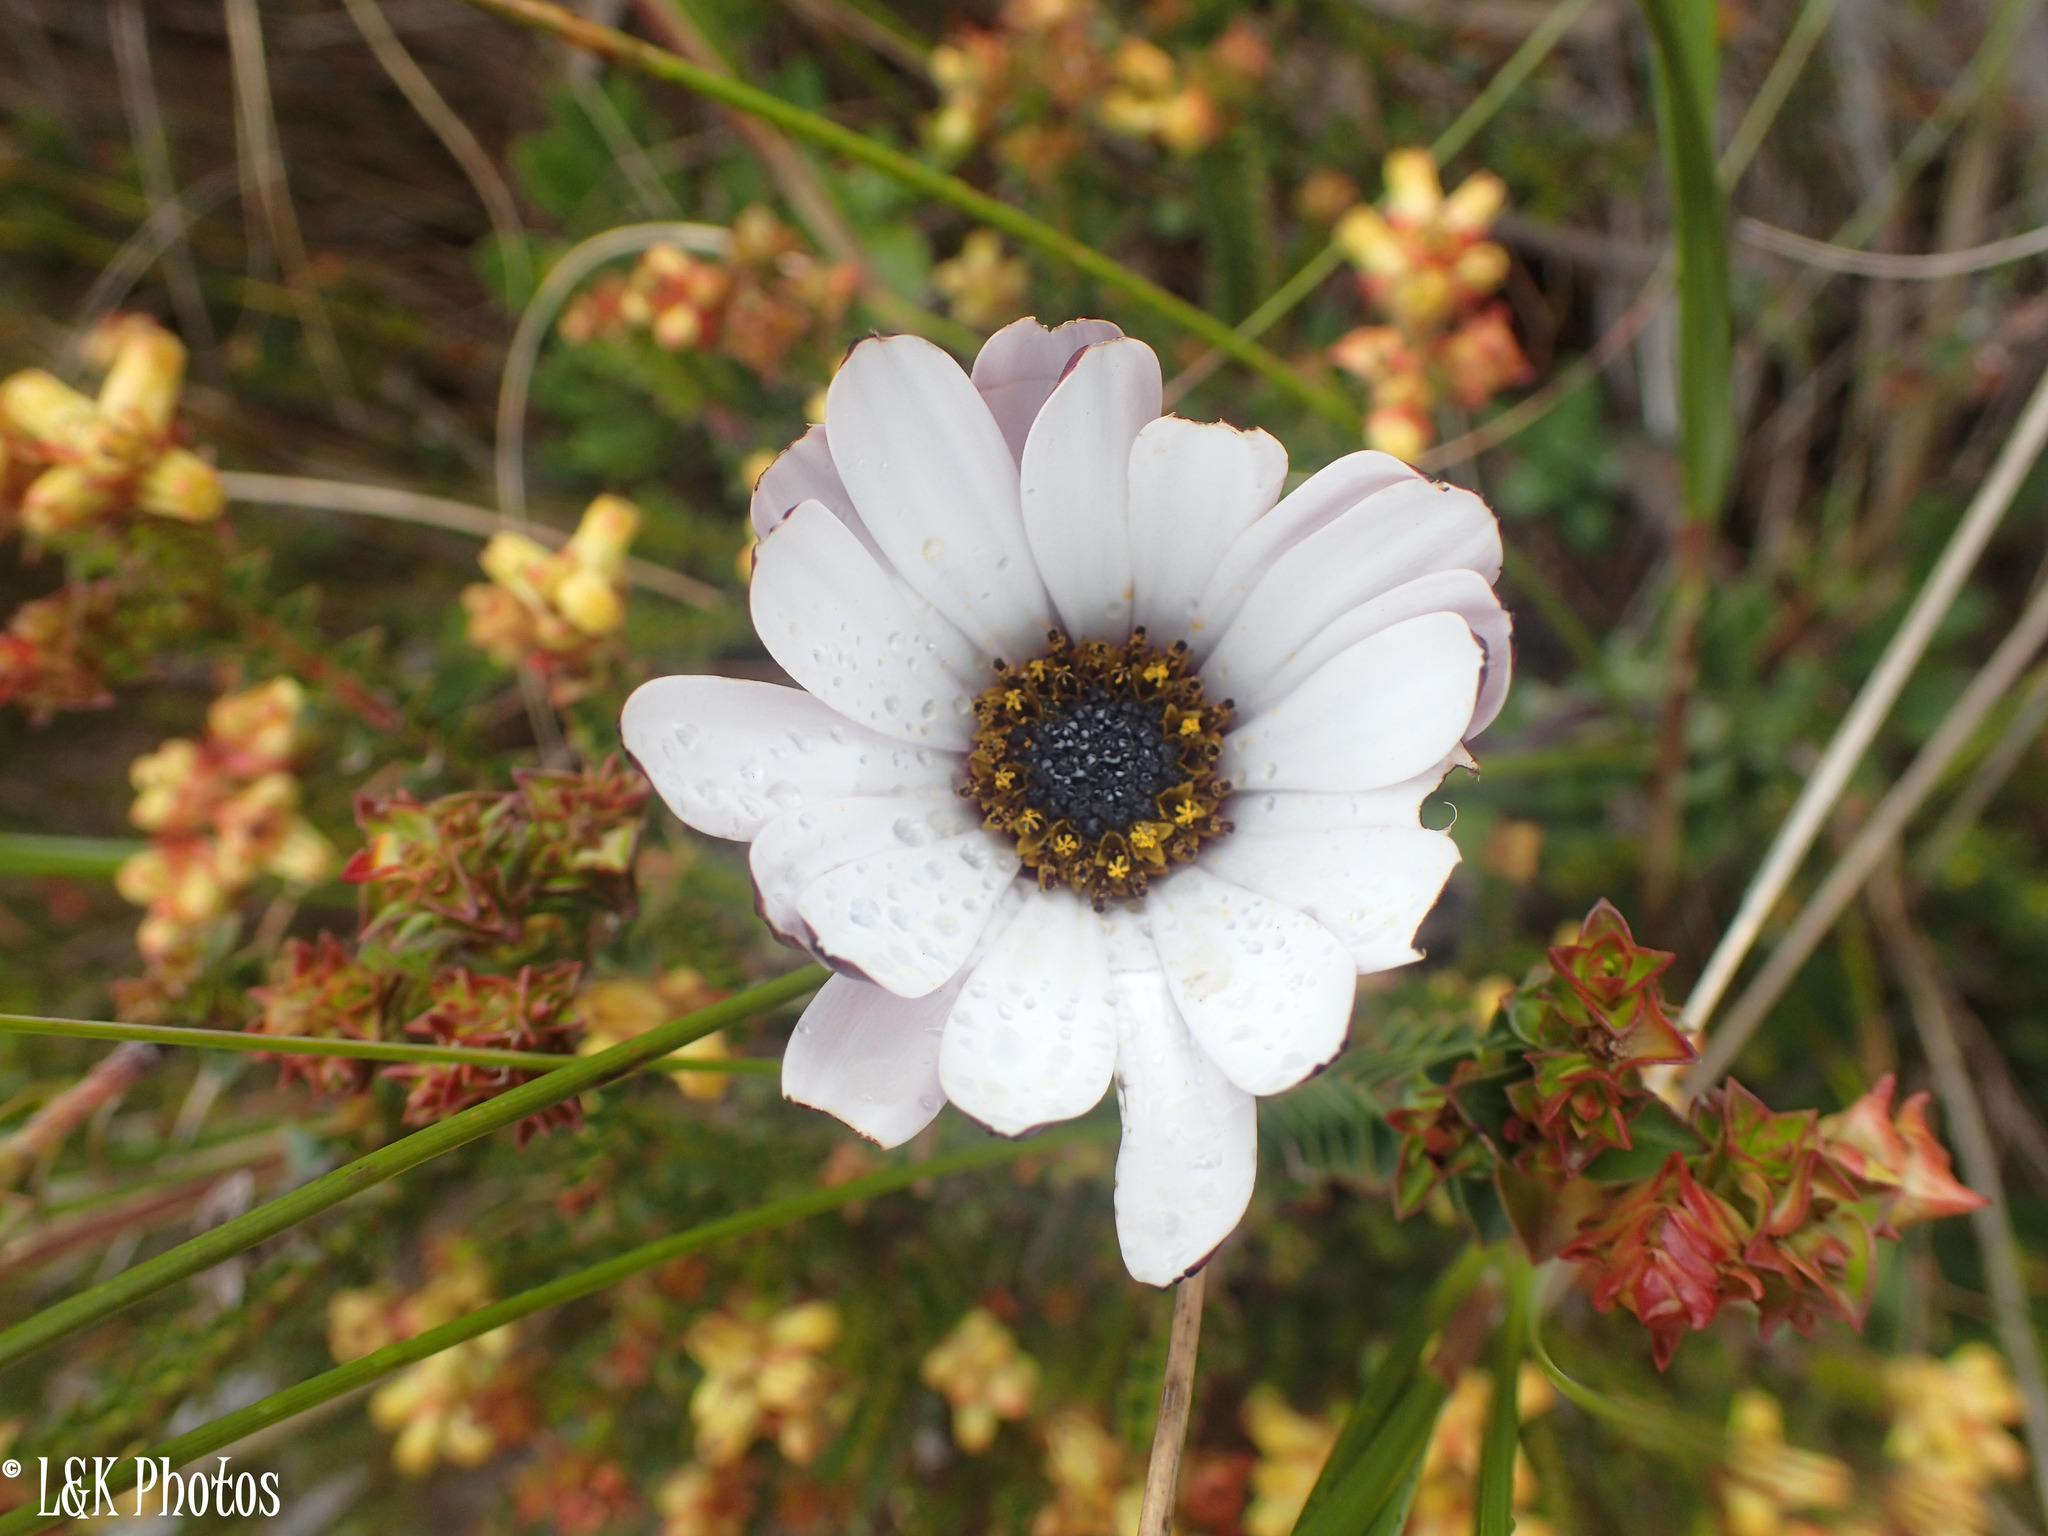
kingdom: Plantae
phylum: Tracheophyta
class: Magnoliopsida
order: Asterales
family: Asteraceae
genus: Dimorphotheca
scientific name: Dimorphotheca pluvialis
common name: Weather prophet
